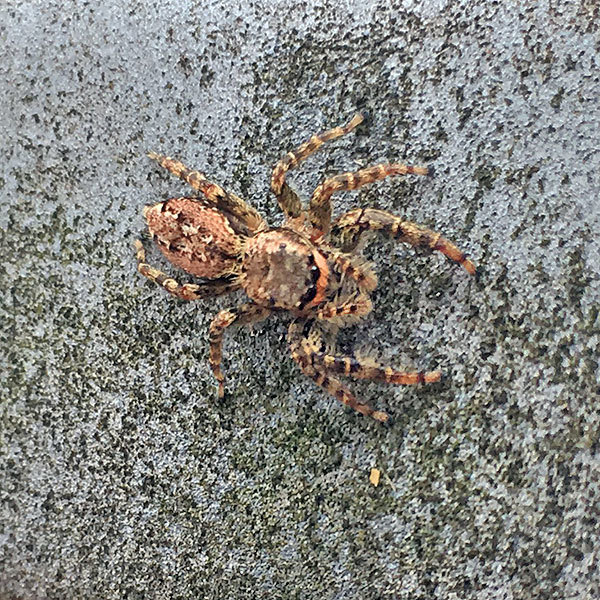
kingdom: Animalia
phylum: Arthropoda
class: Arachnida
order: Araneae
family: Salticidae
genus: Marpissa
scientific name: Marpissa muscosa
